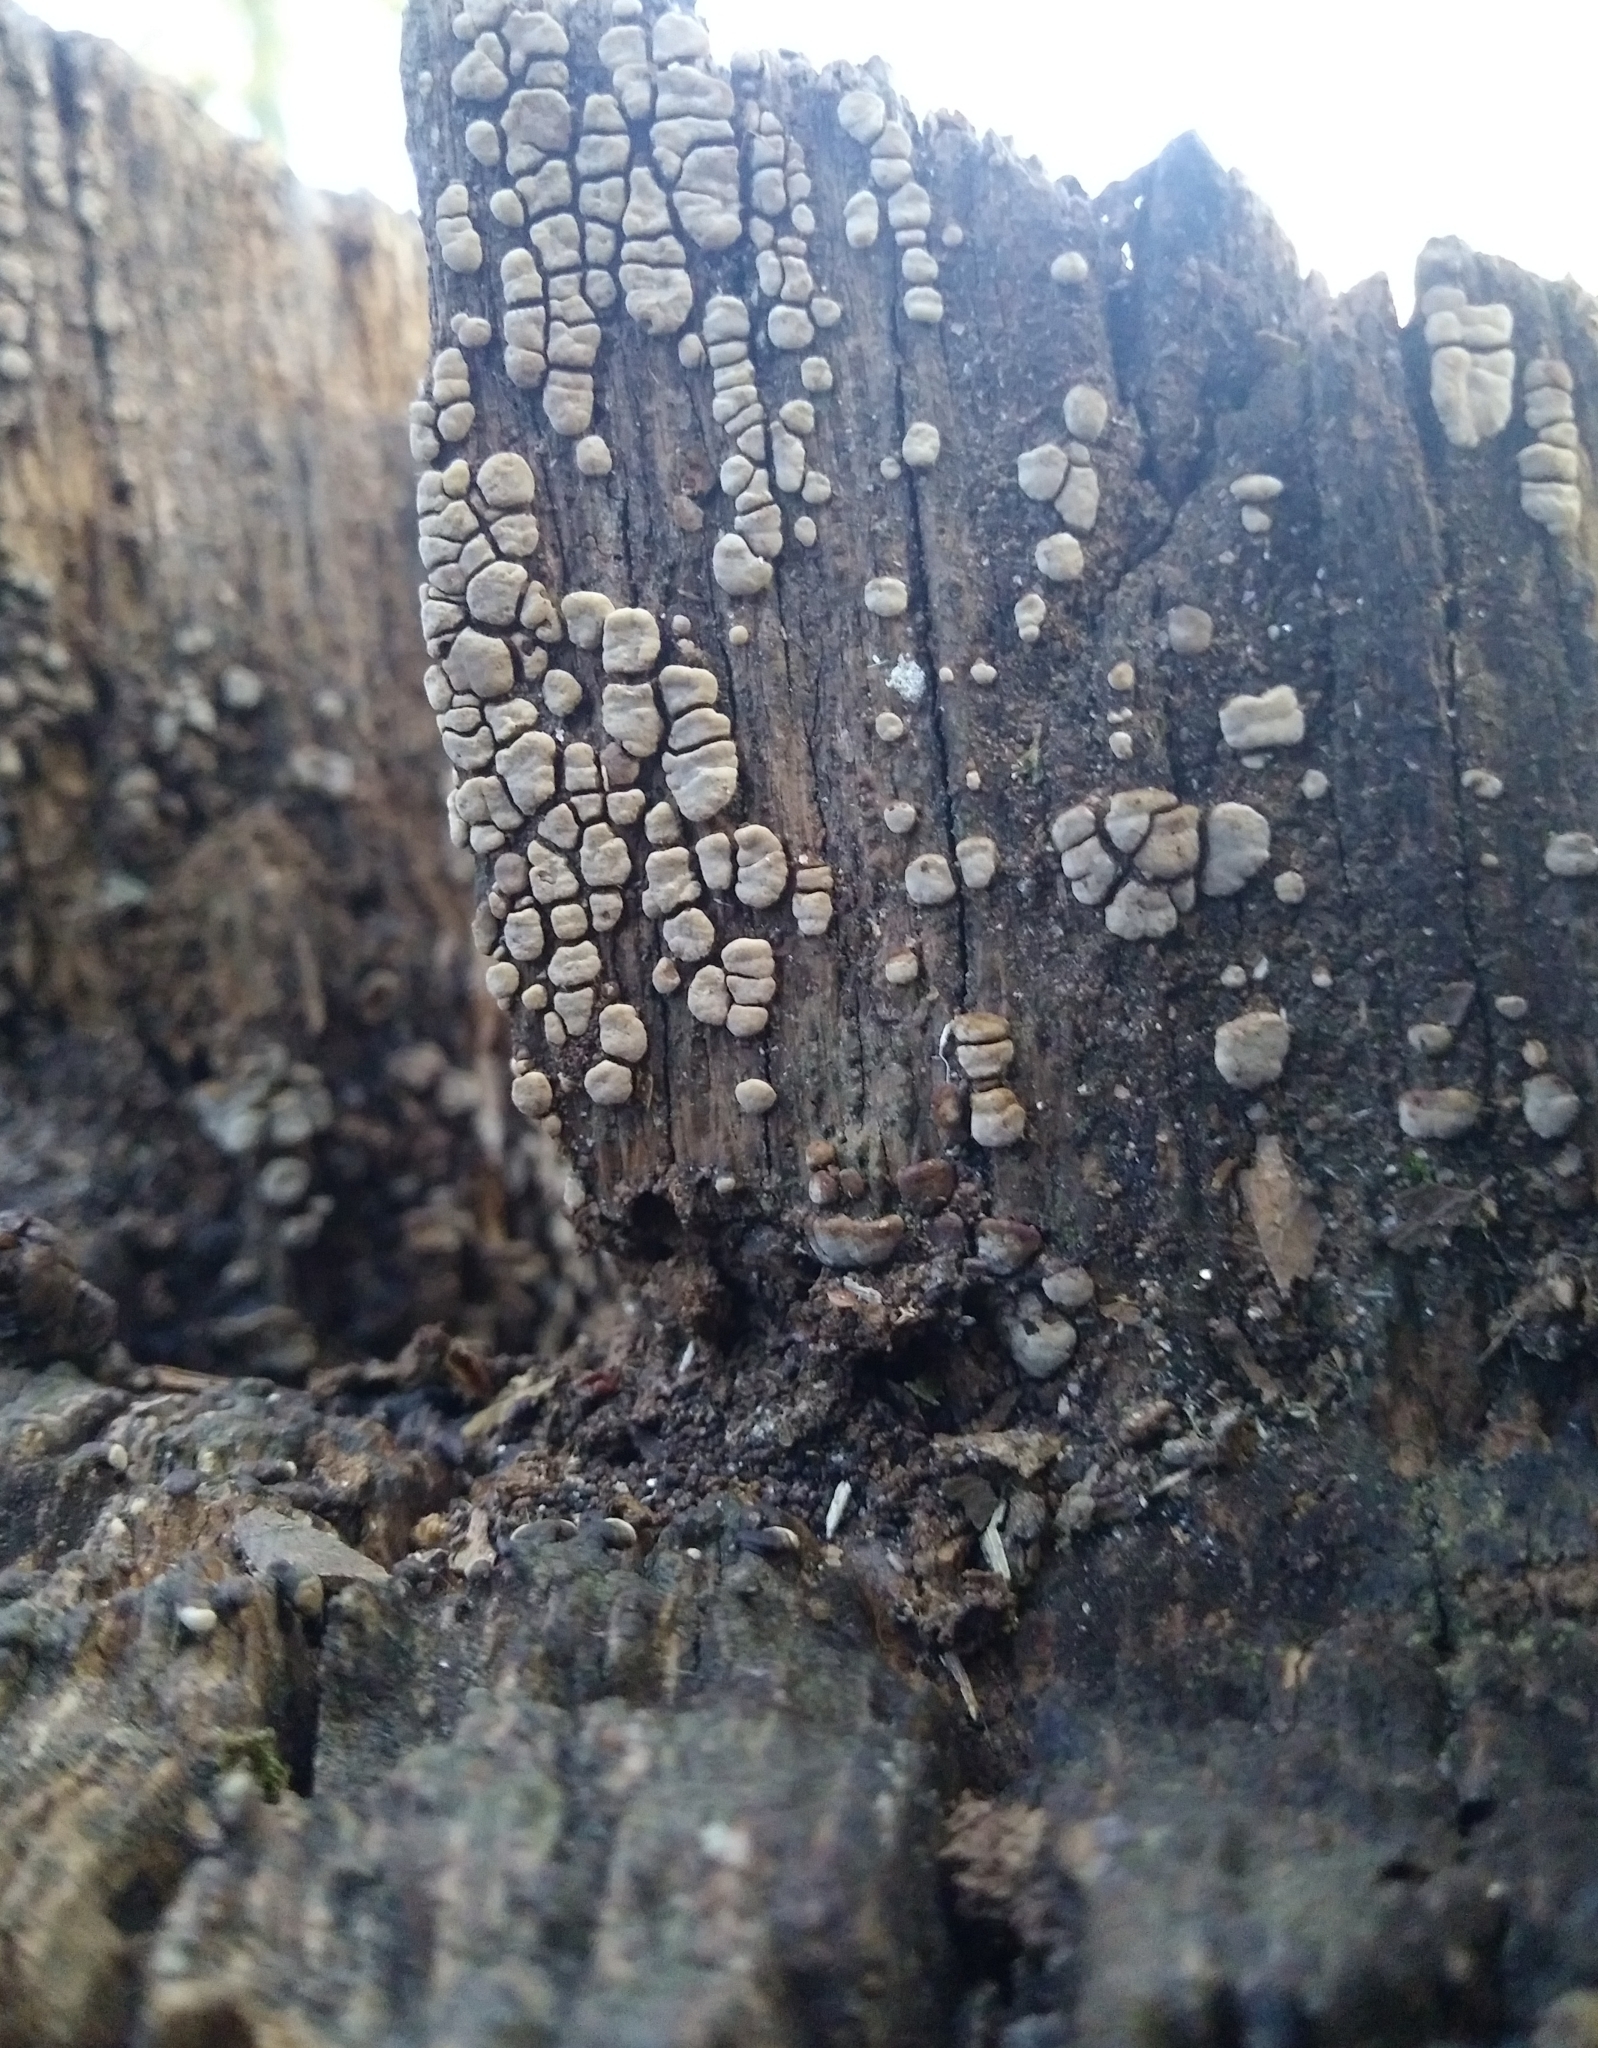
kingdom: Fungi
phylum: Basidiomycota
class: Agaricomycetes
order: Russulales
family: Stereaceae
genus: Xylobolus
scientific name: Xylobolus frustulatus
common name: Ceramic parchment
